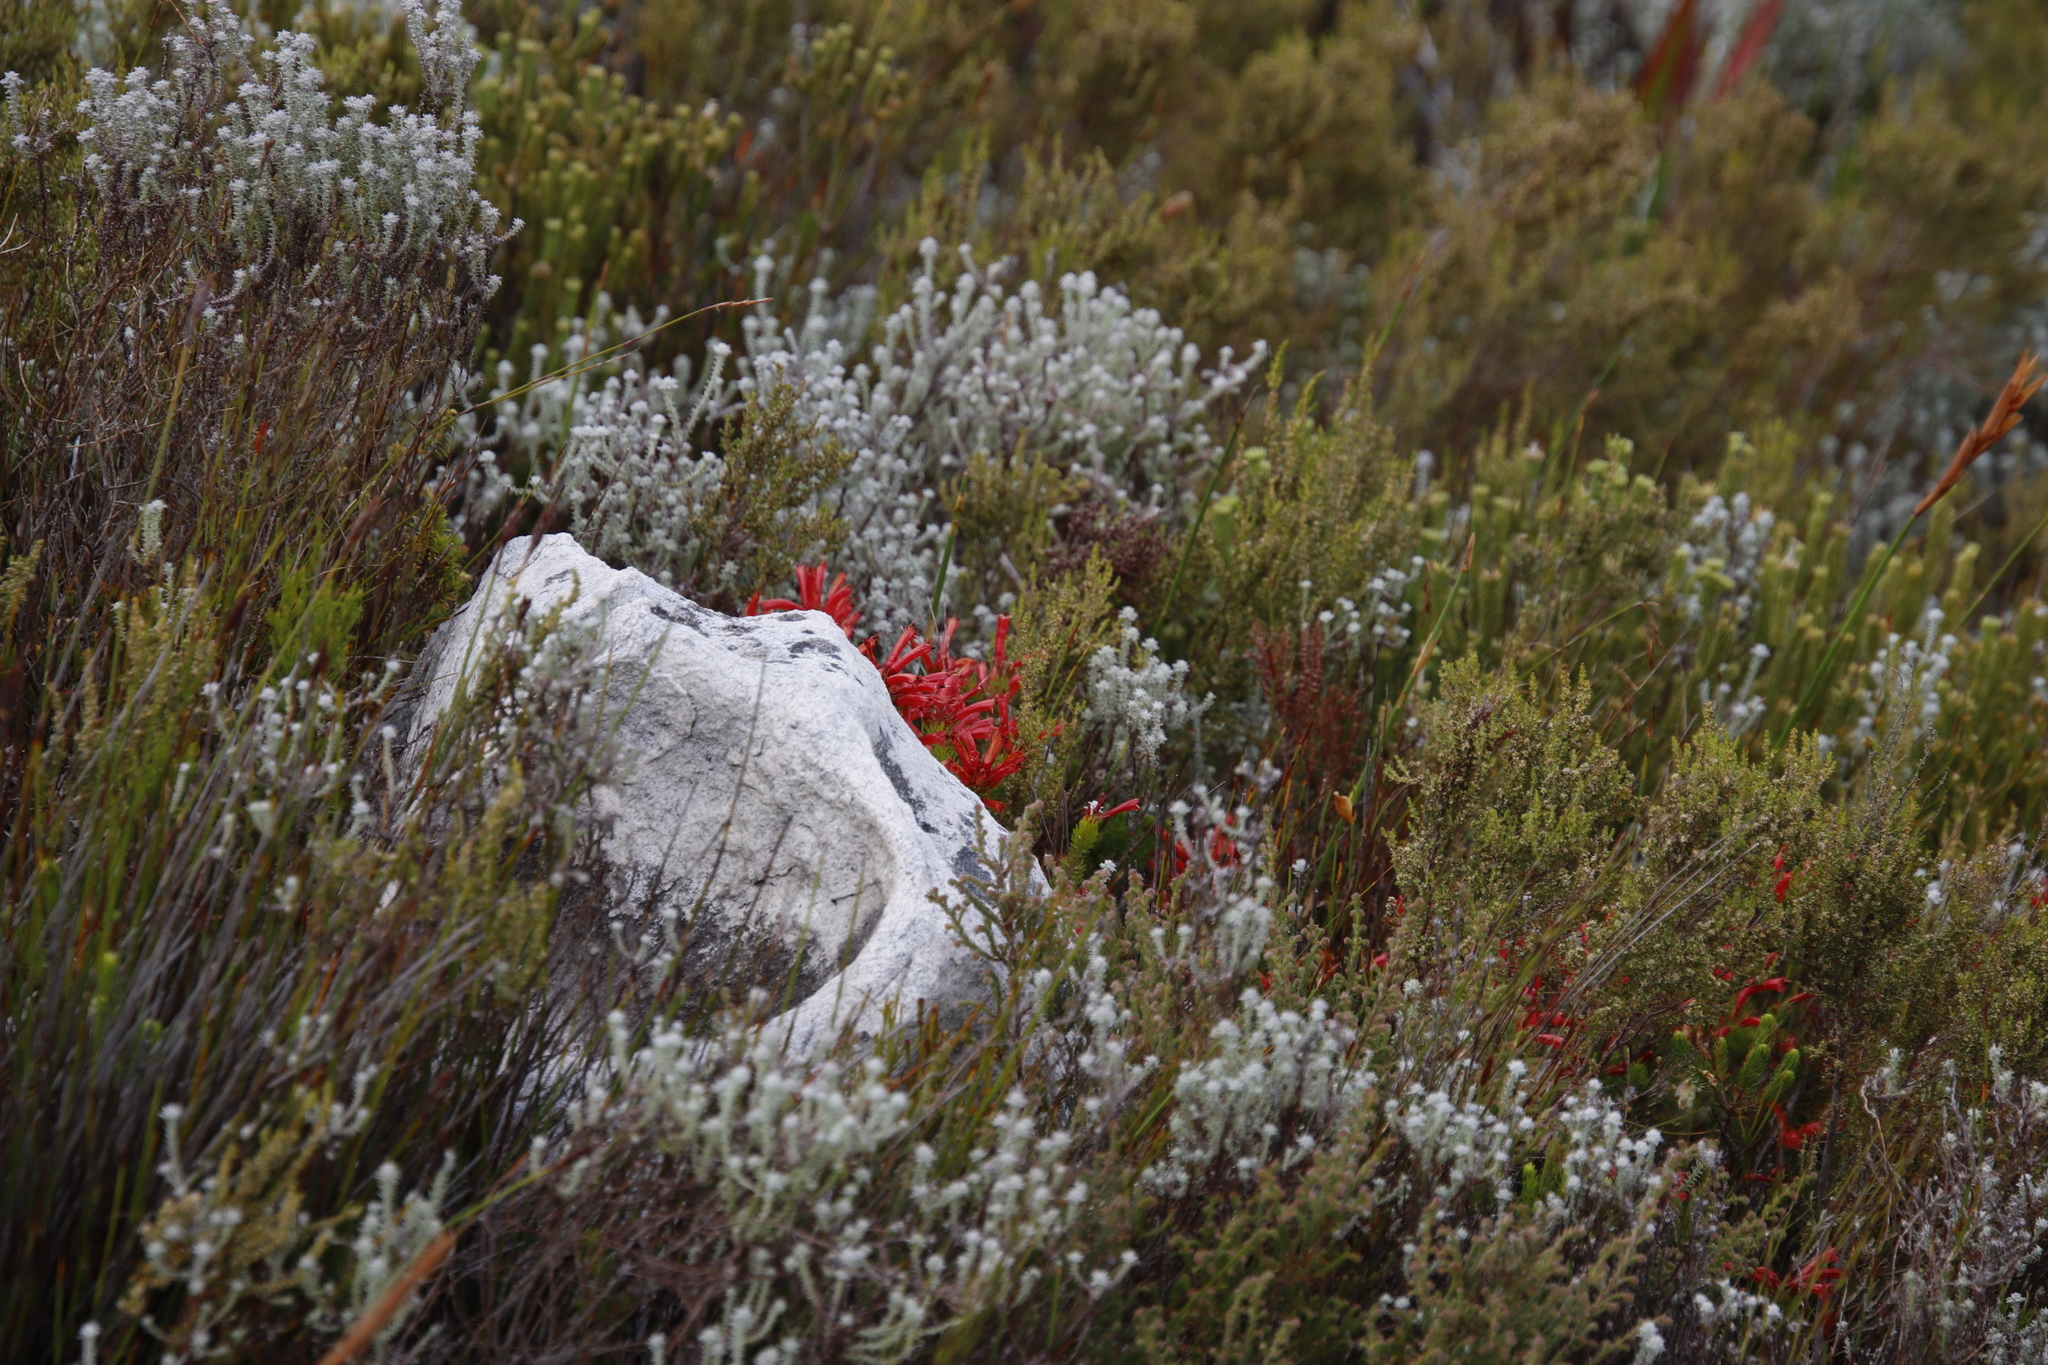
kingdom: Plantae
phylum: Tracheophyta
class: Magnoliopsida
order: Ericales
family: Ericaceae
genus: Erica
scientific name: Erica nevillei
